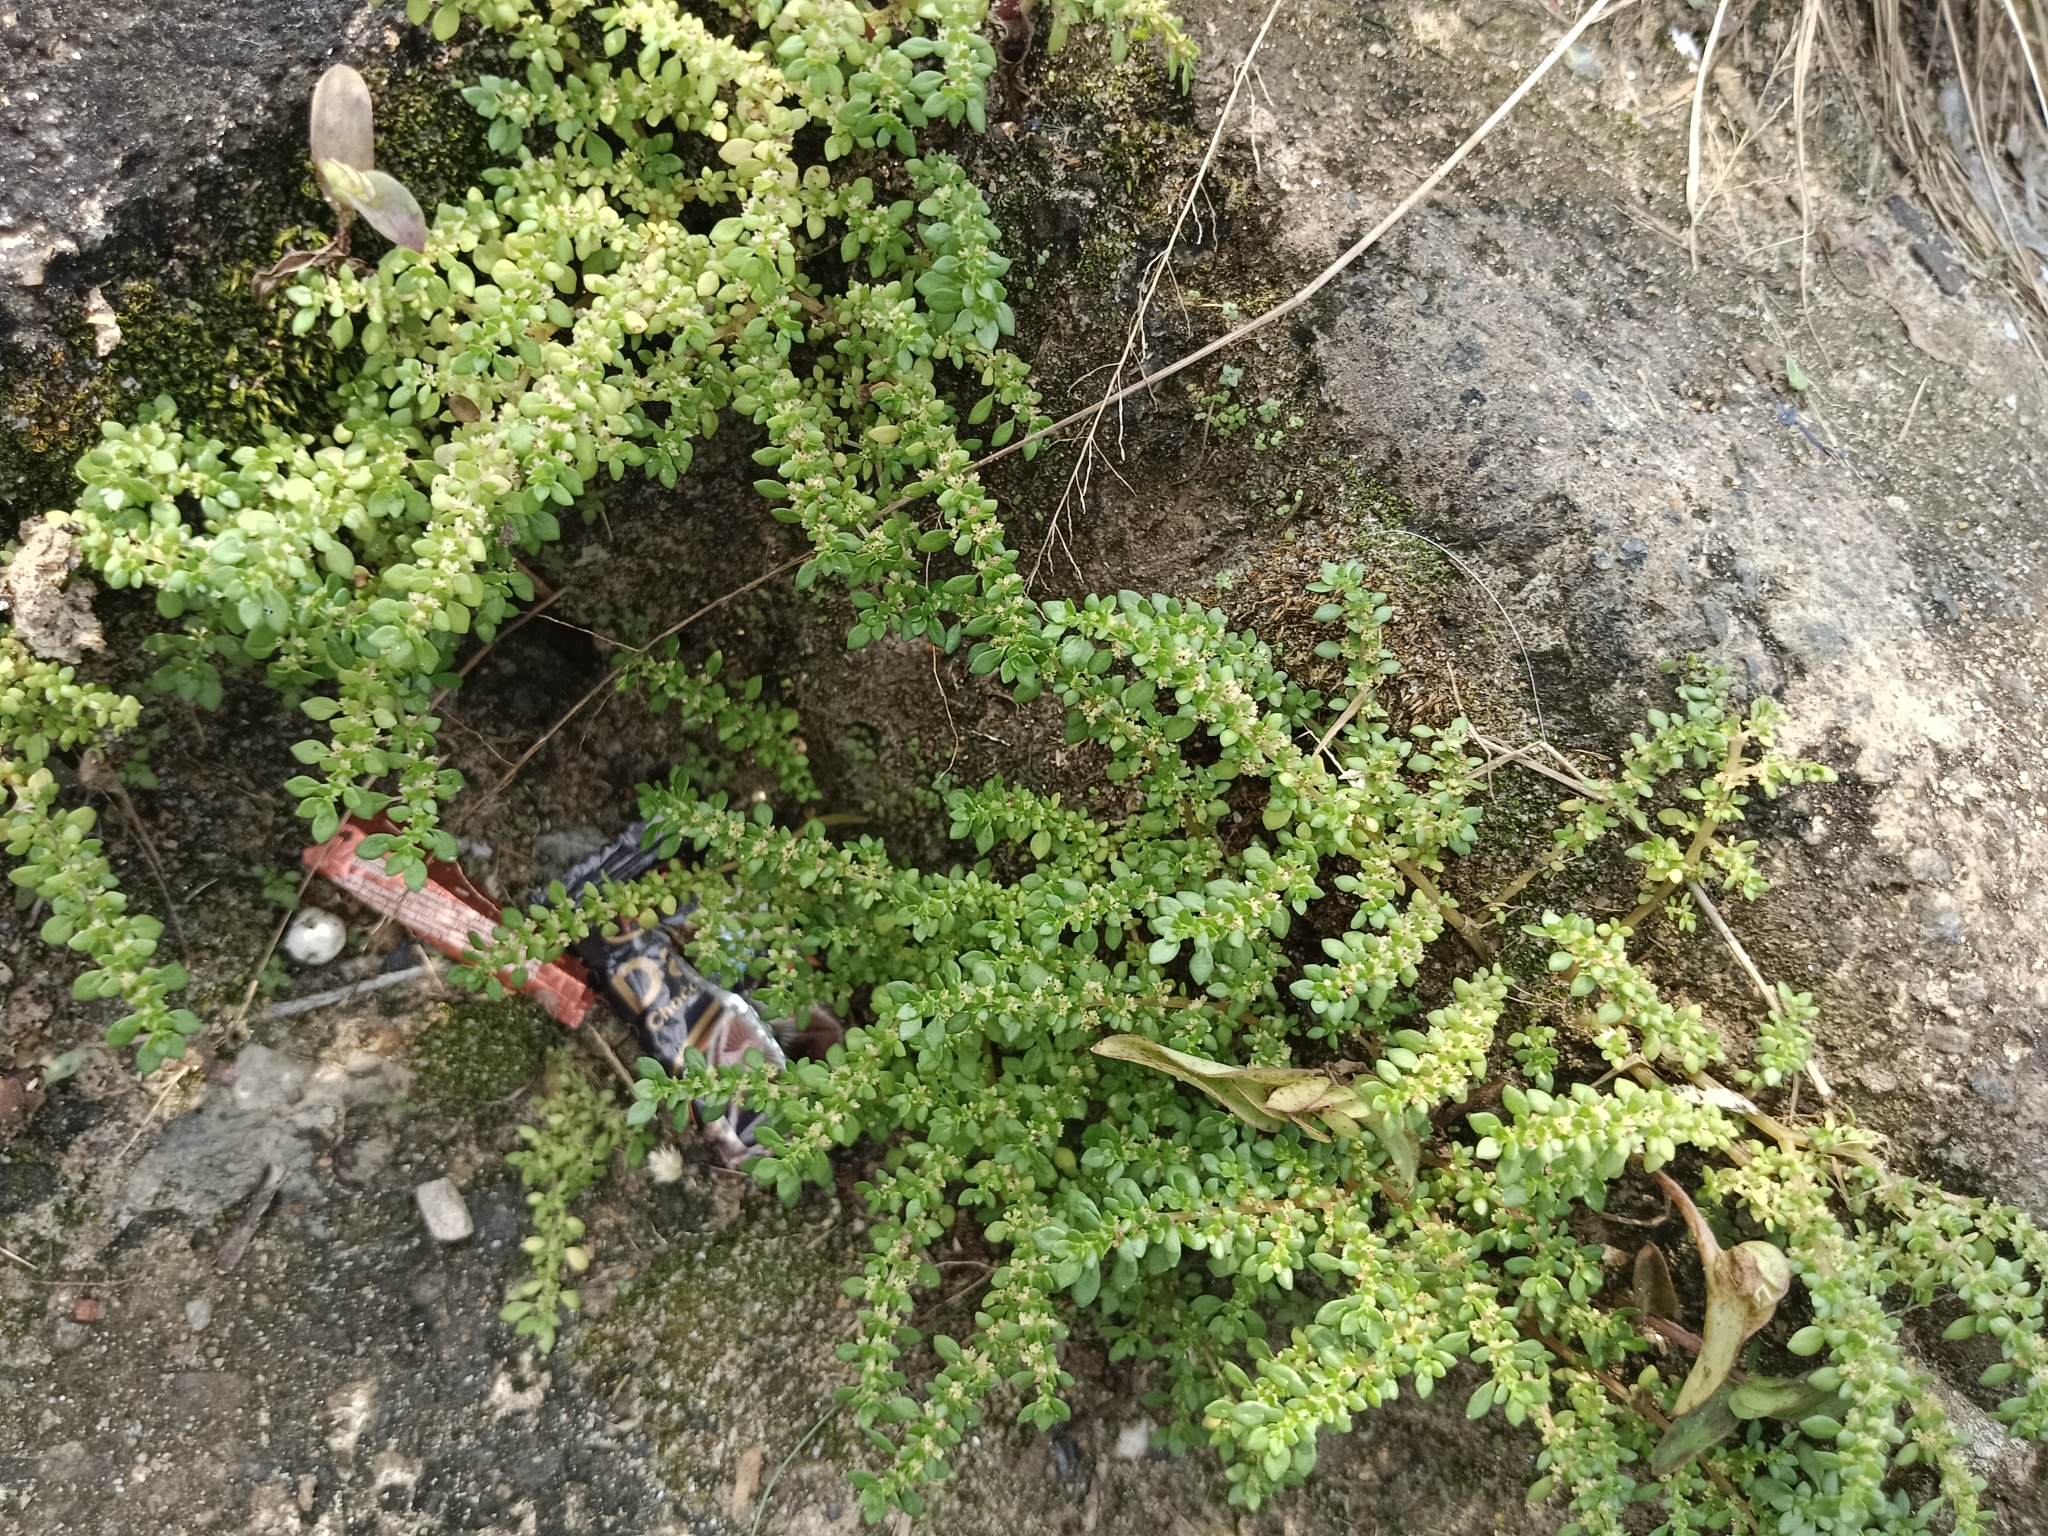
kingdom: Plantae
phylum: Tracheophyta
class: Magnoliopsida
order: Rosales
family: Urticaceae
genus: Pilea
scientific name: Pilea microphylla
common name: Artillery-plant
